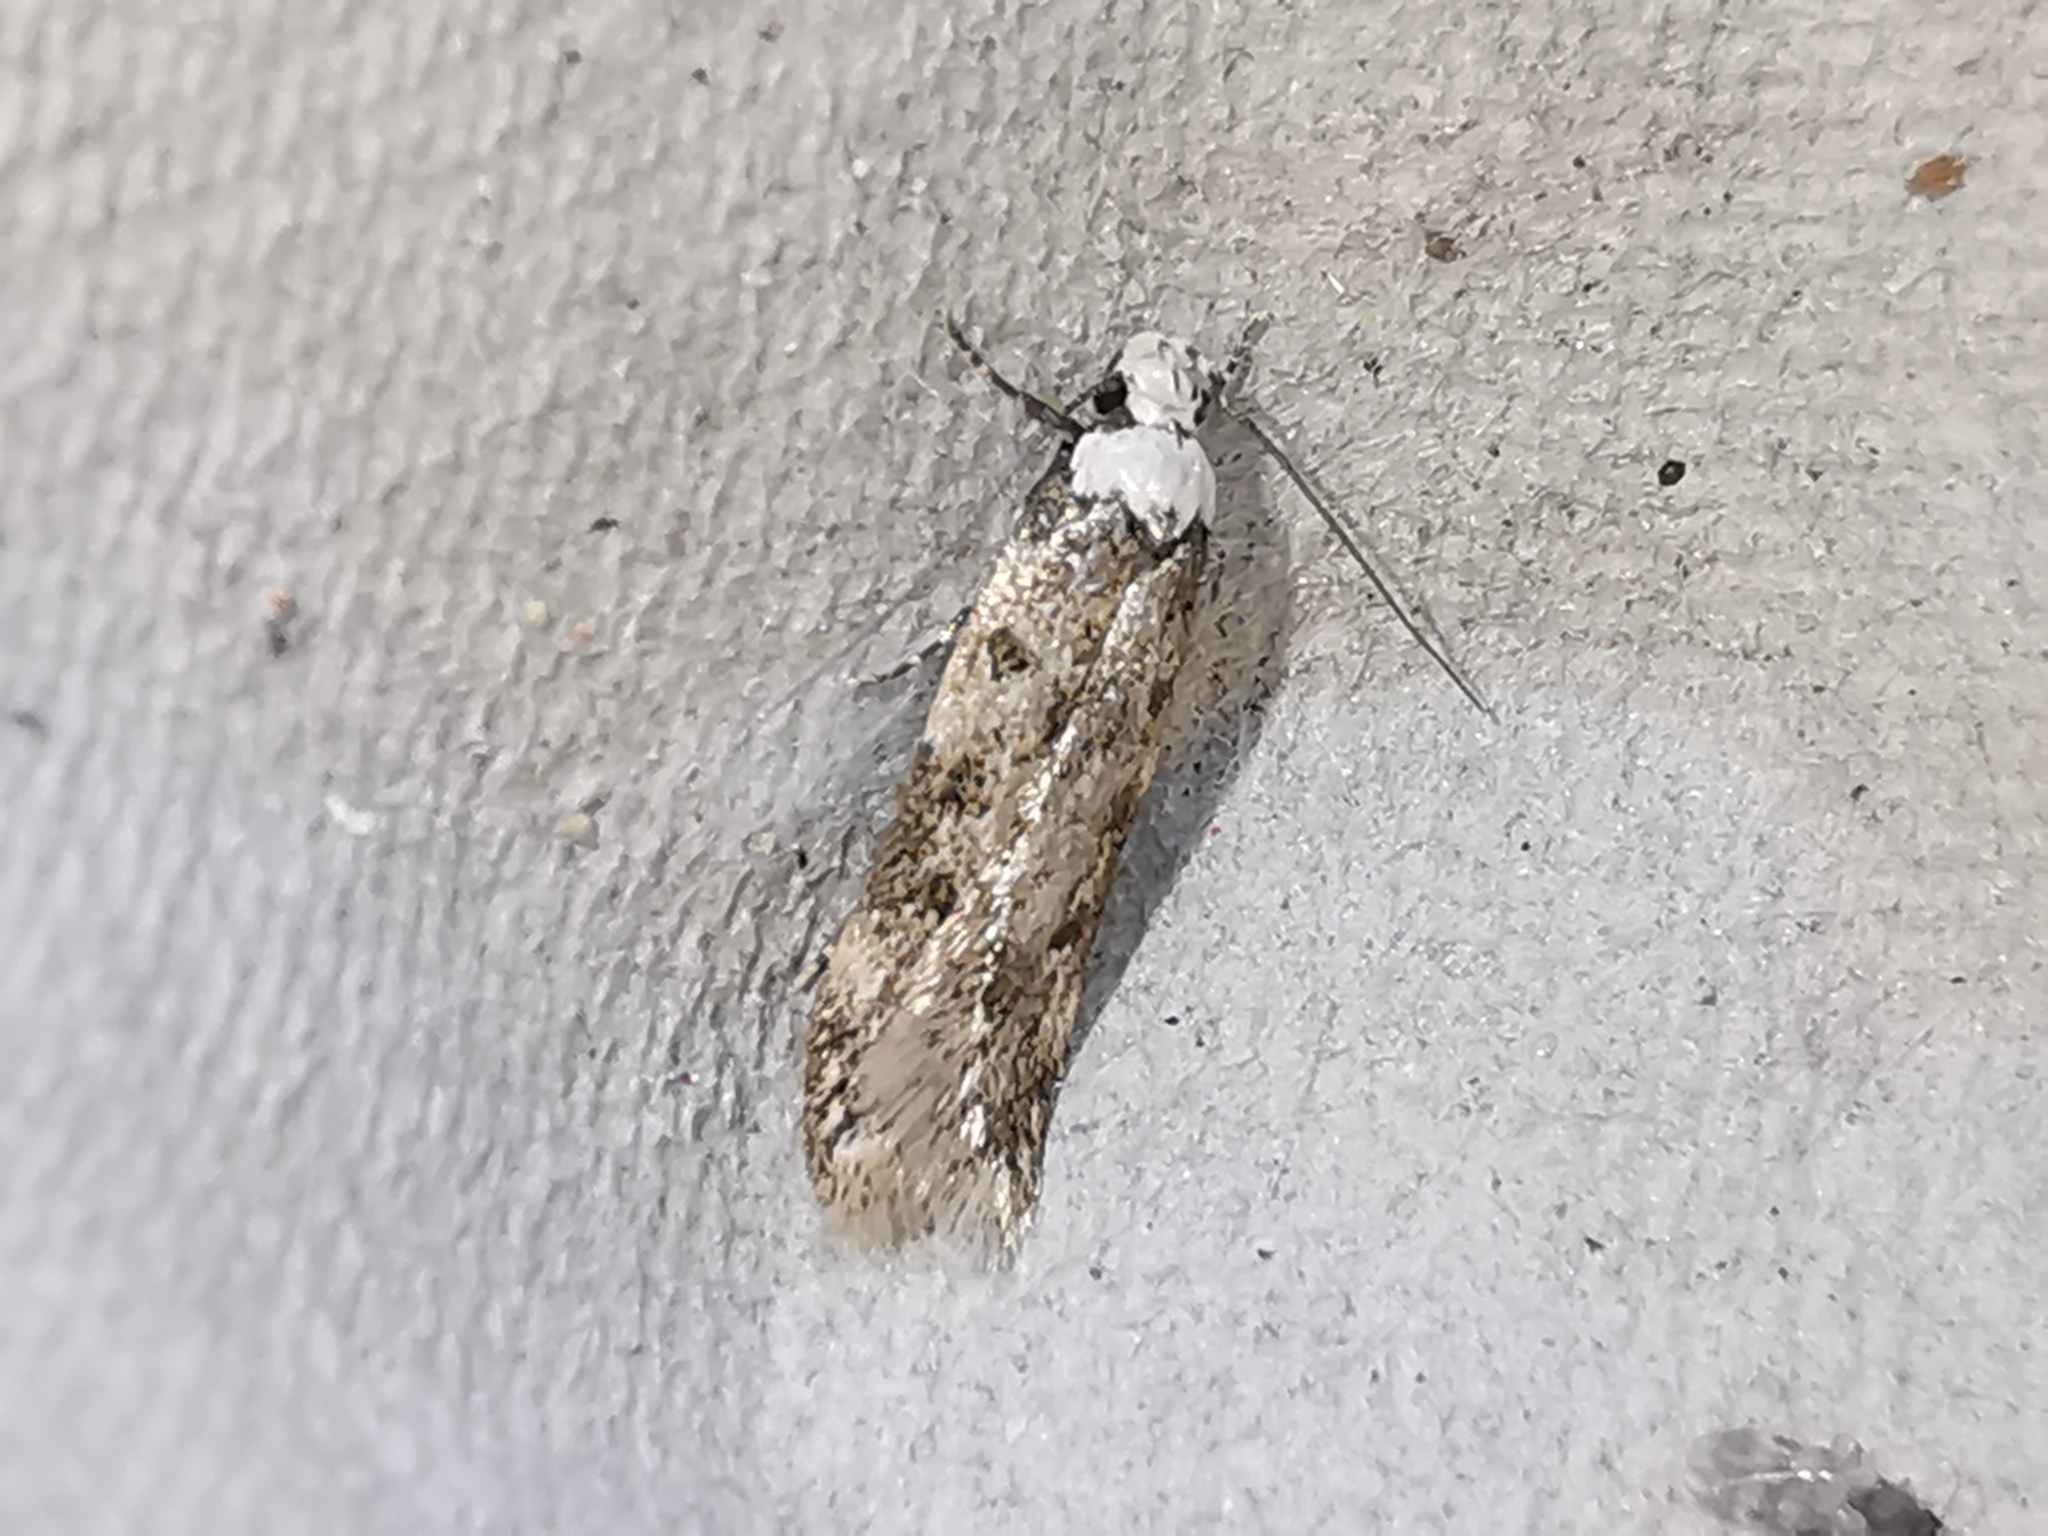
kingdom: Animalia
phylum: Arthropoda
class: Insecta
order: Lepidoptera
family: Oecophoridae
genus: Endrosis
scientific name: Endrosis sarcitrella
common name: White-shouldered house moth
